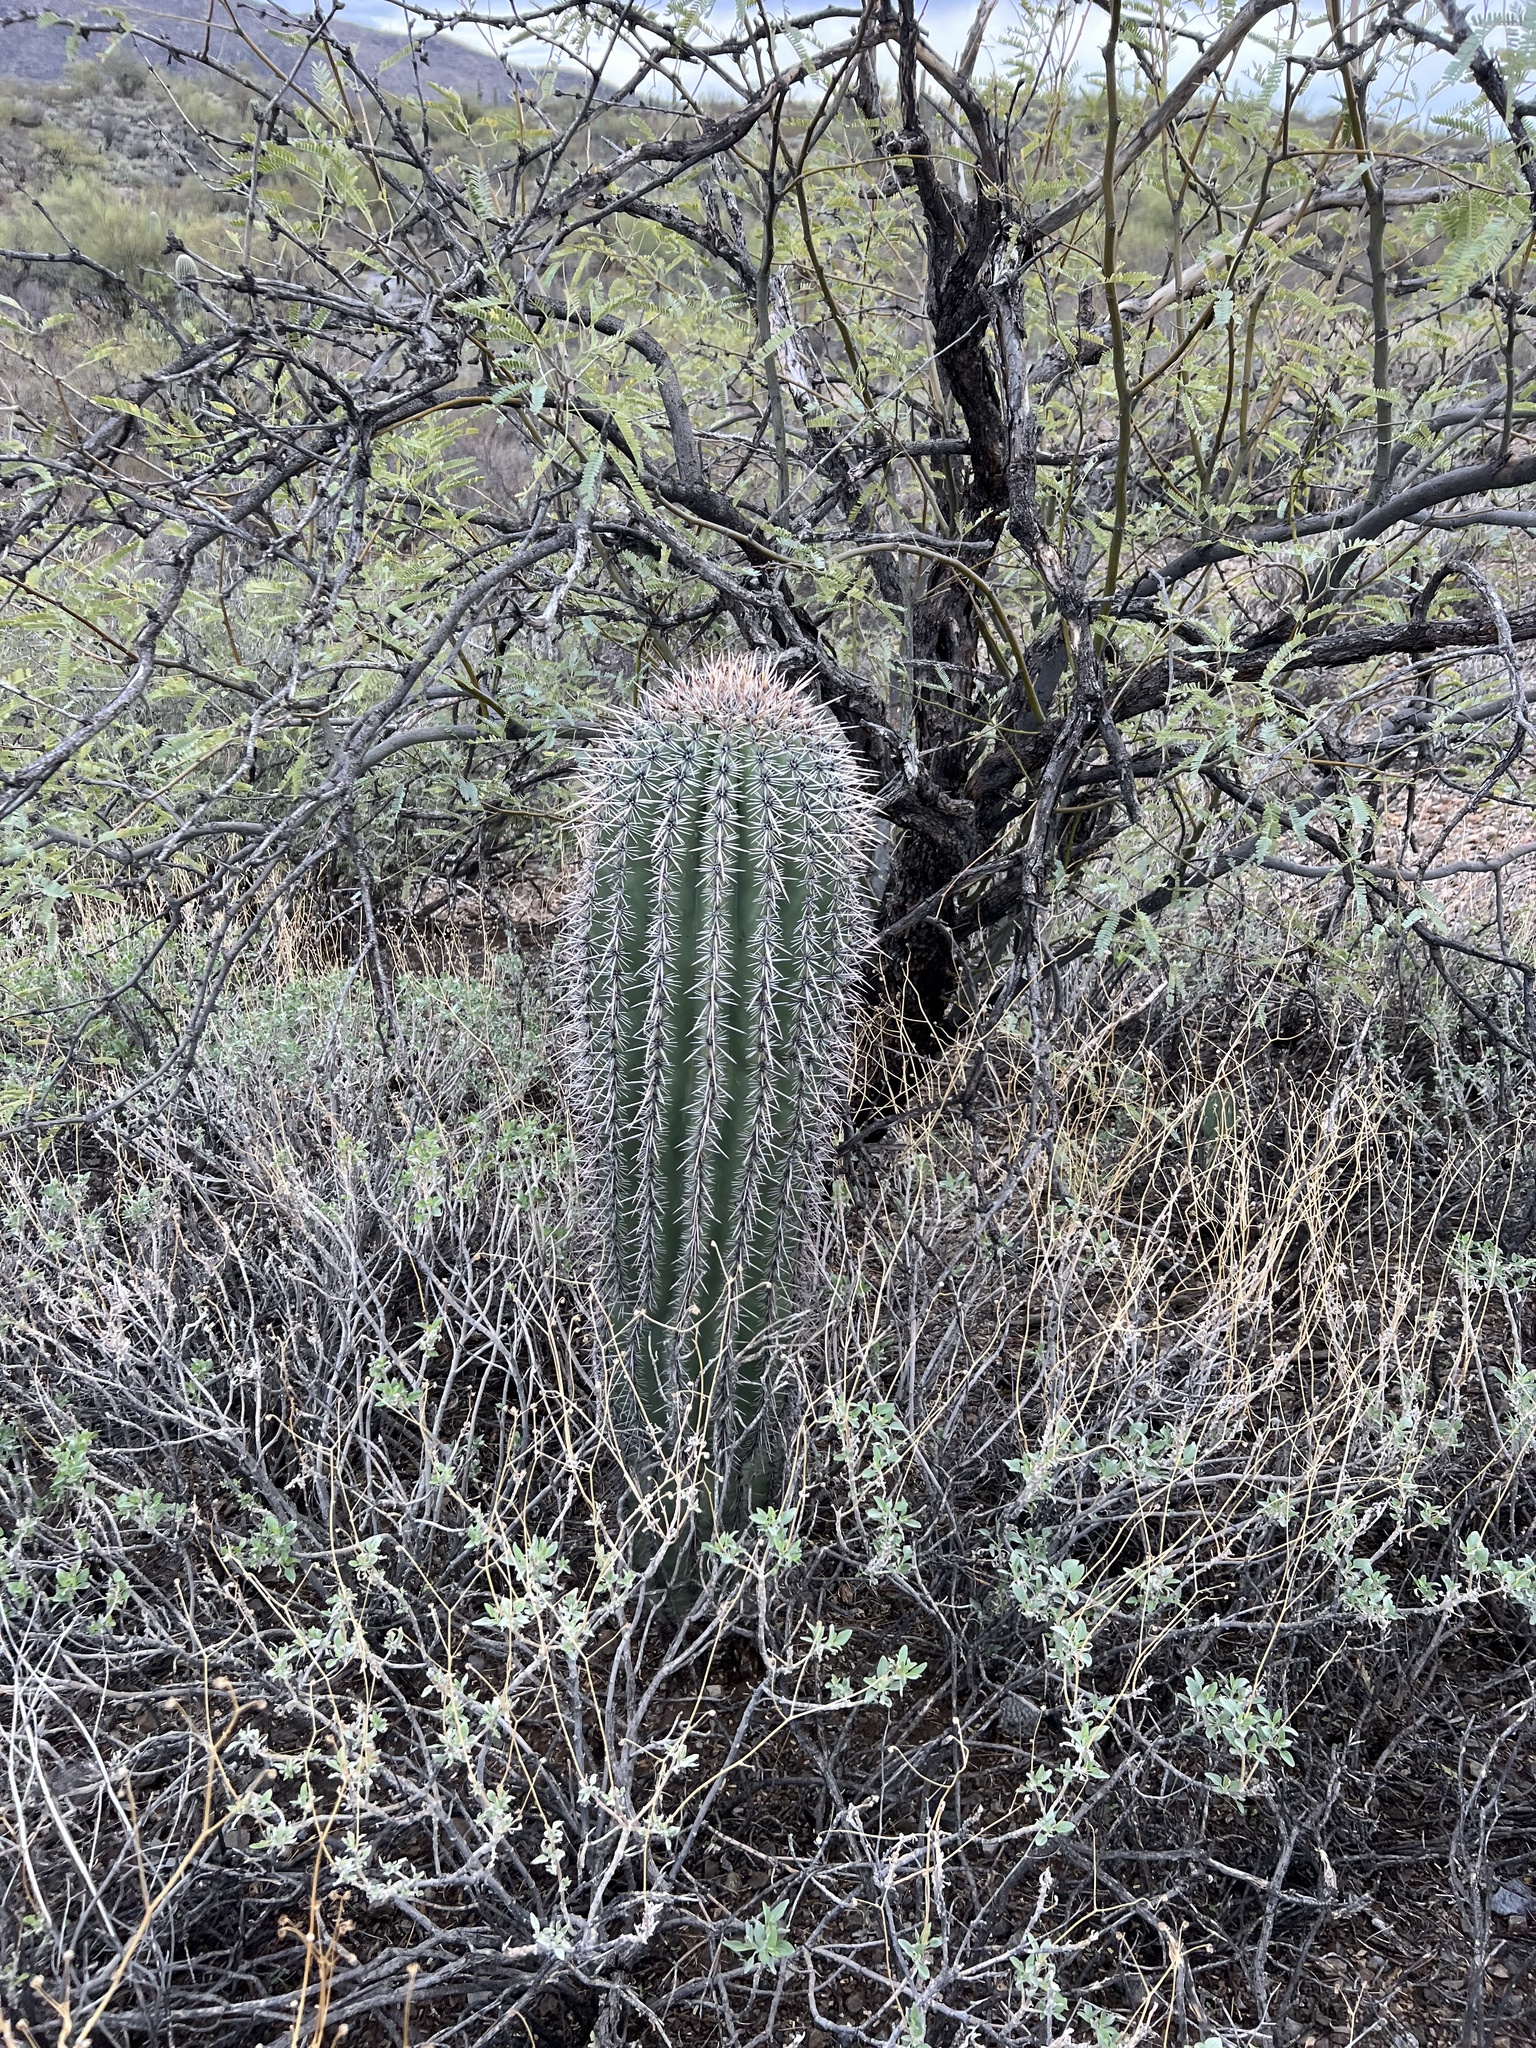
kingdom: Plantae
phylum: Tracheophyta
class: Magnoliopsida
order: Caryophyllales
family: Cactaceae
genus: Carnegiea
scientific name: Carnegiea gigantea
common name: Saguaro
